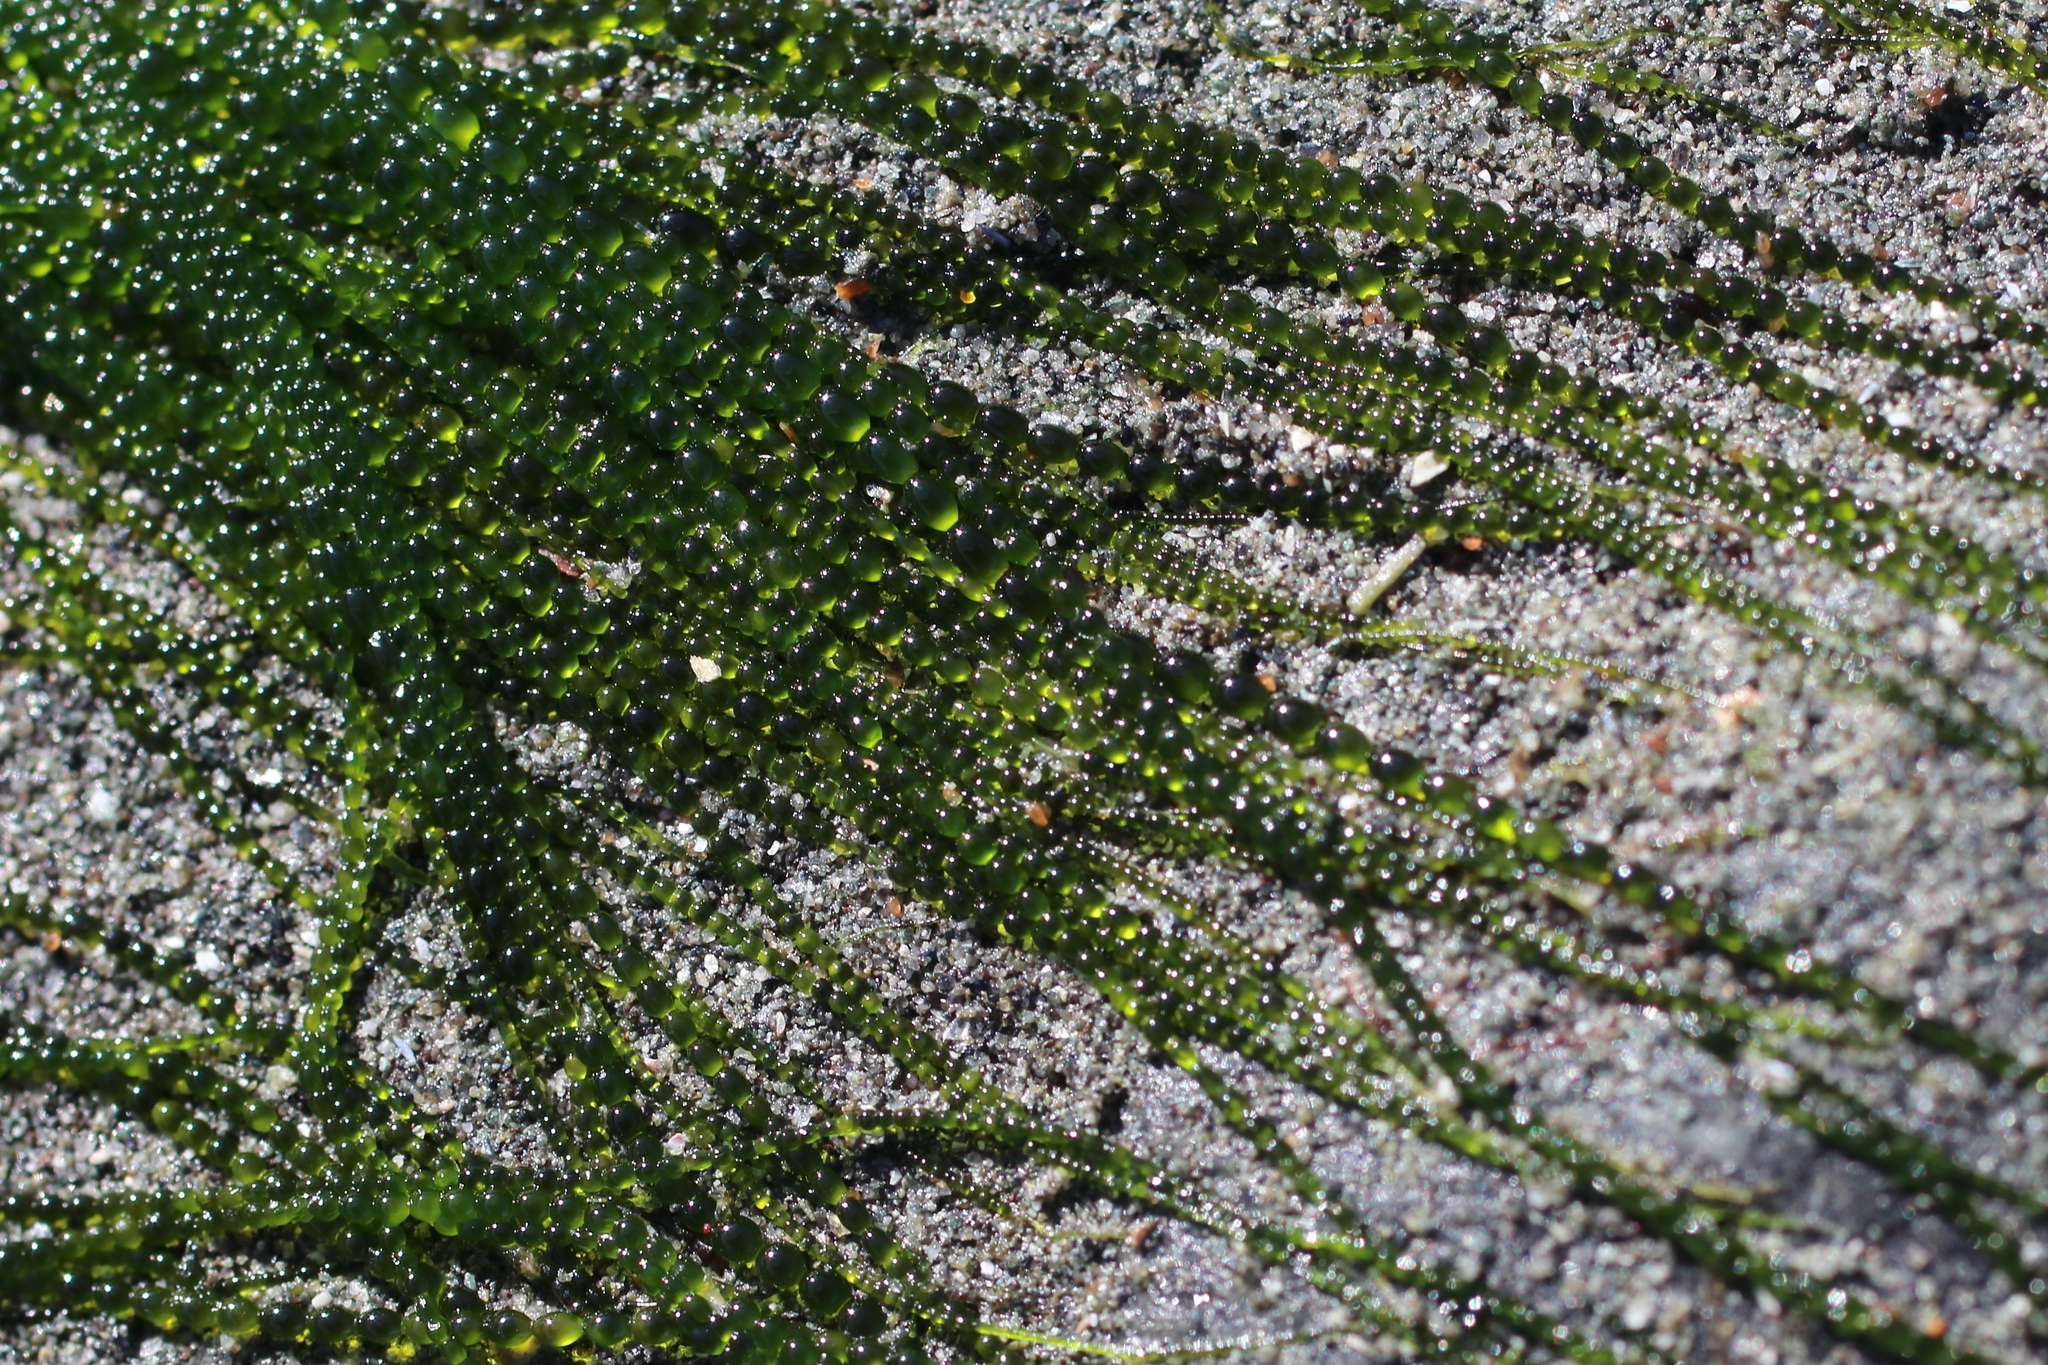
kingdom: Plantae
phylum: Chlorophyta
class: Ulvophyceae
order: Ulotrichales
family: Ulotrichaceae
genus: Urospora
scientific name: Urospora wormskioldii
